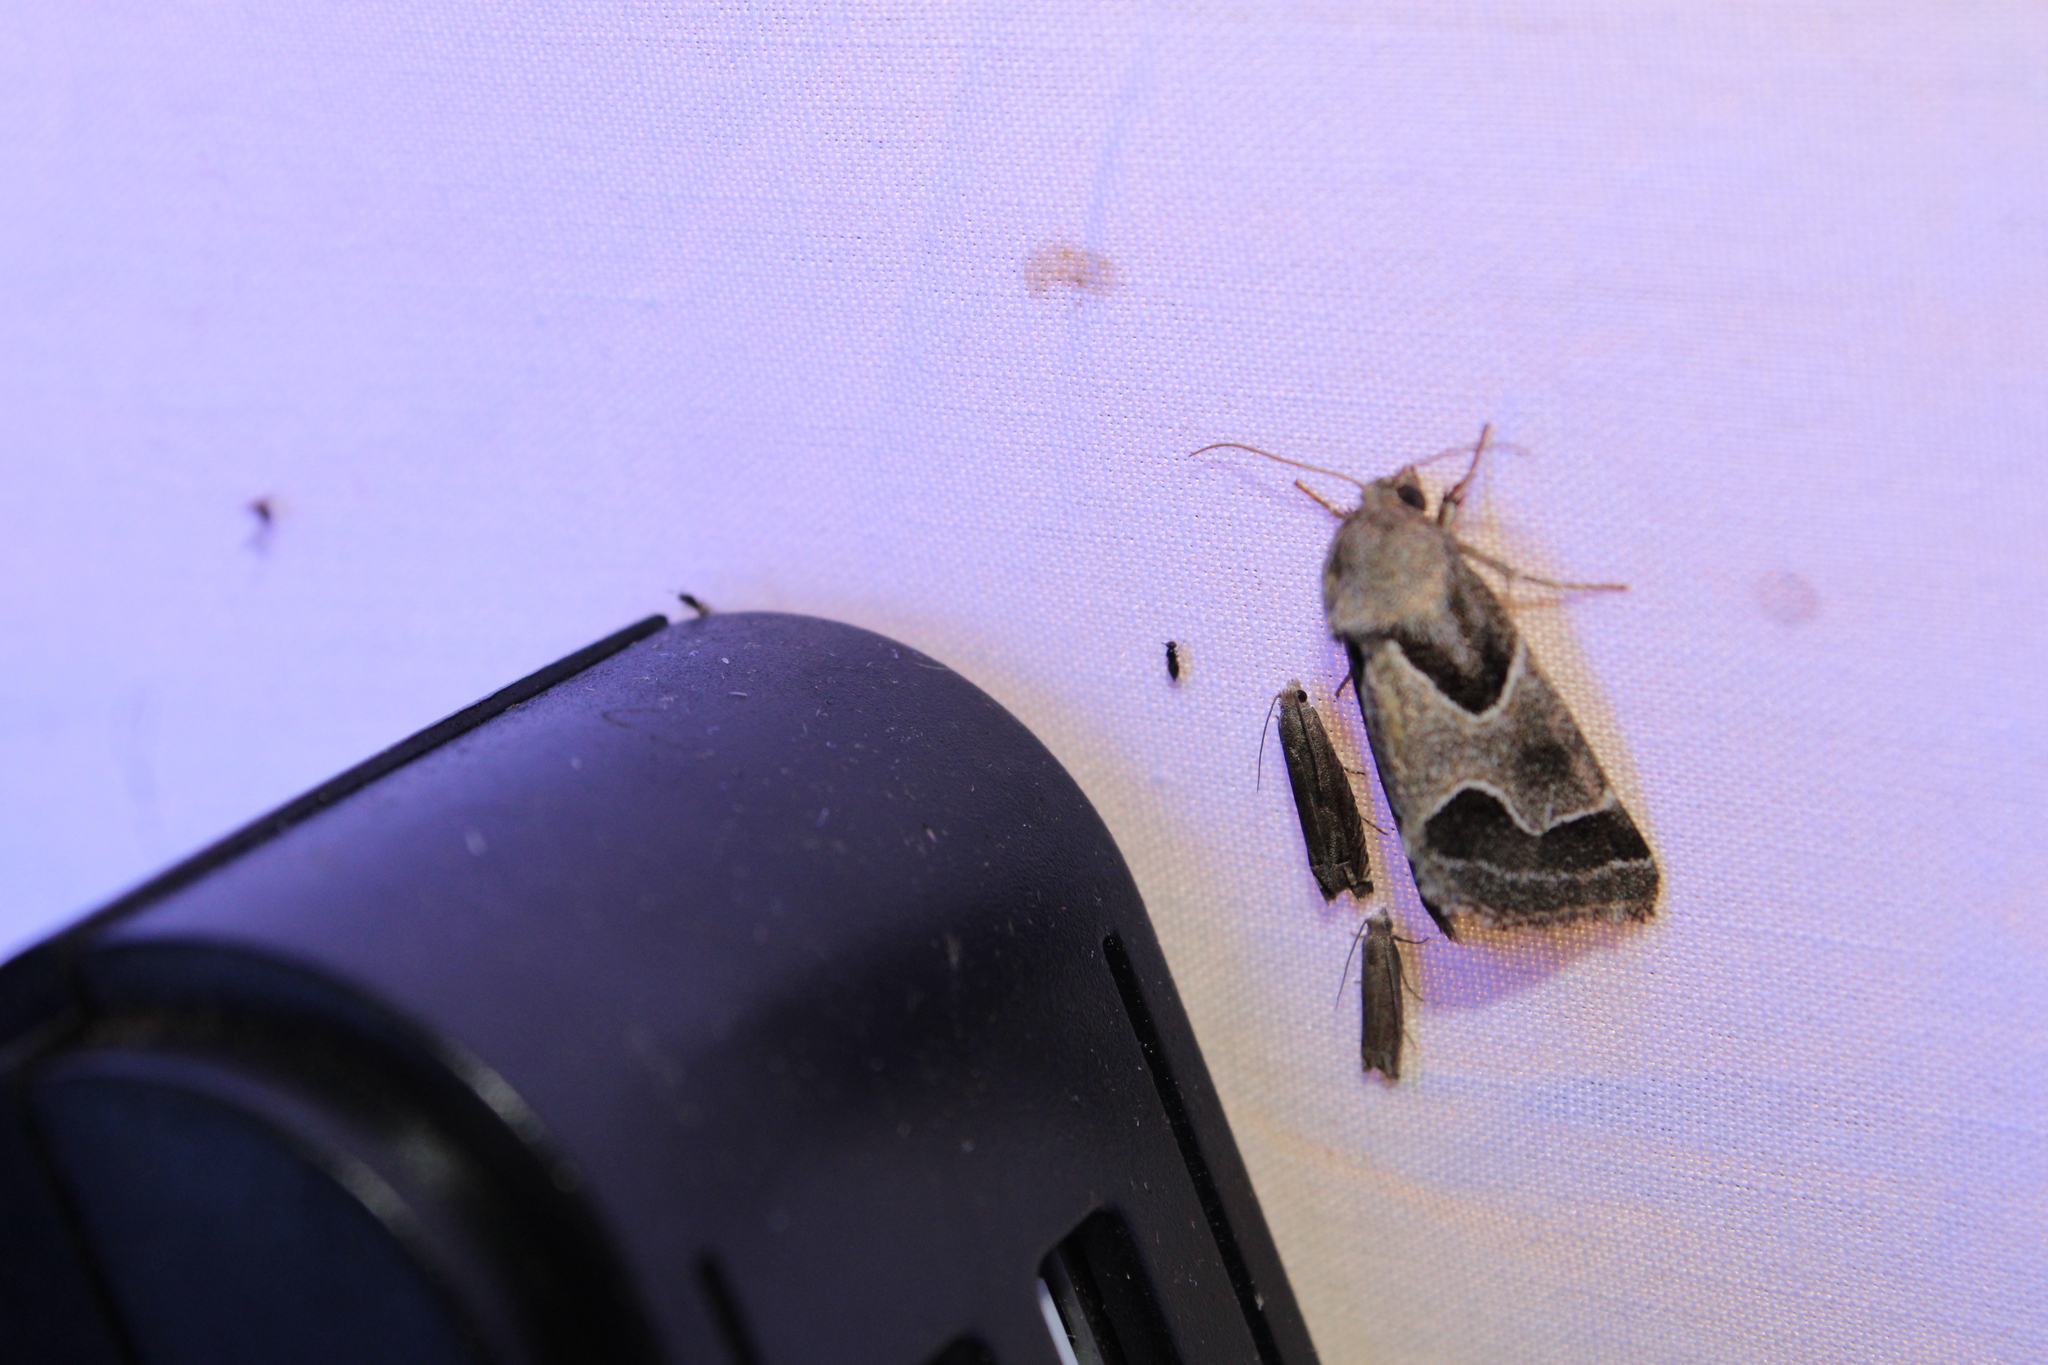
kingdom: Animalia
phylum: Arthropoda
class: Insecta
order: Lepidoptera
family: Noctuidae
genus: Schinia
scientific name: Schinia rivulosa
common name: Scarce meal-moth
